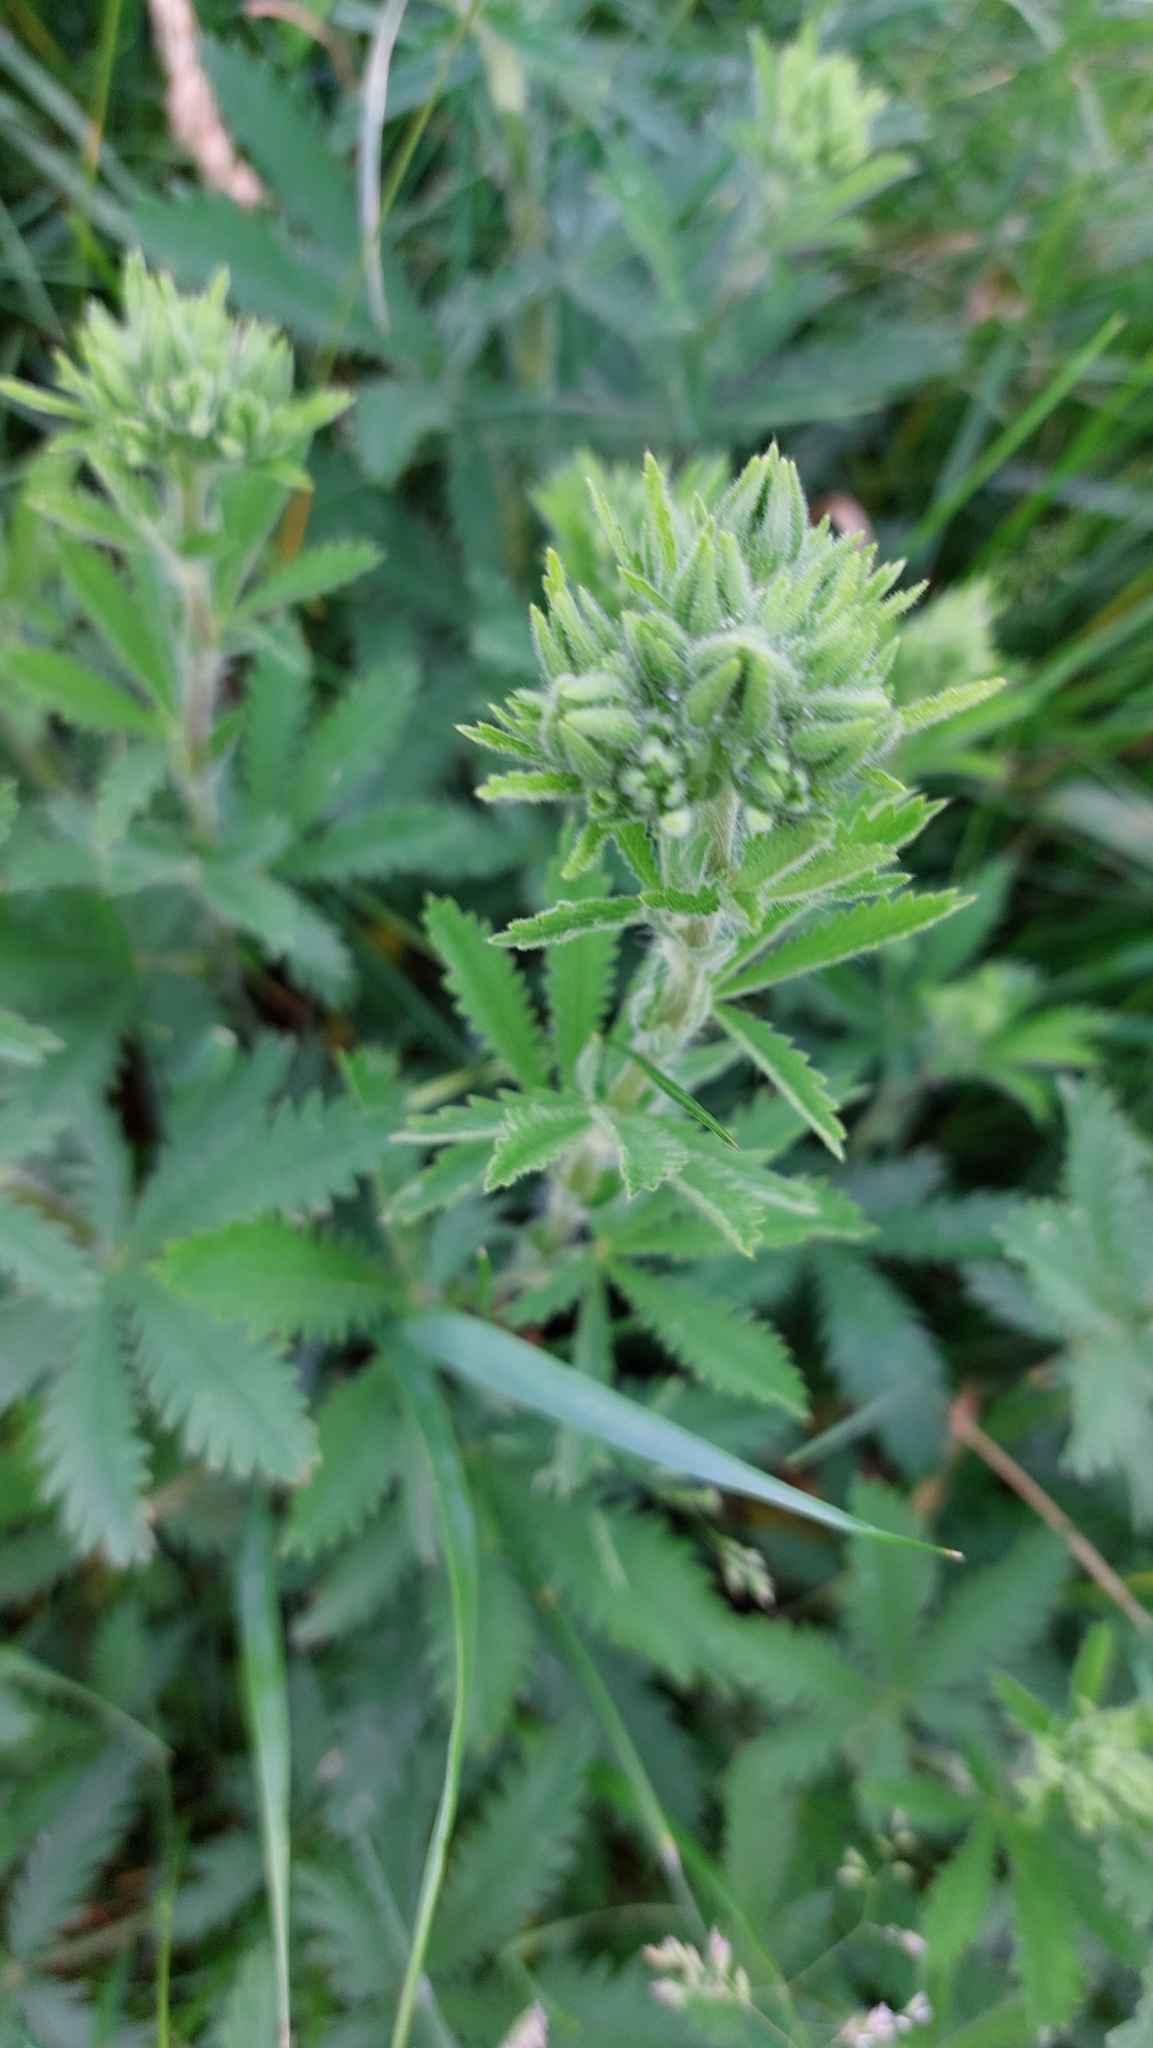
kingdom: Plantae
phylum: Tracheophyta
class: Magnoliopsida
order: Rosales
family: Rosaceae
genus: Potentilla
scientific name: Potentilla recta
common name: Sulphur cinquefoil
